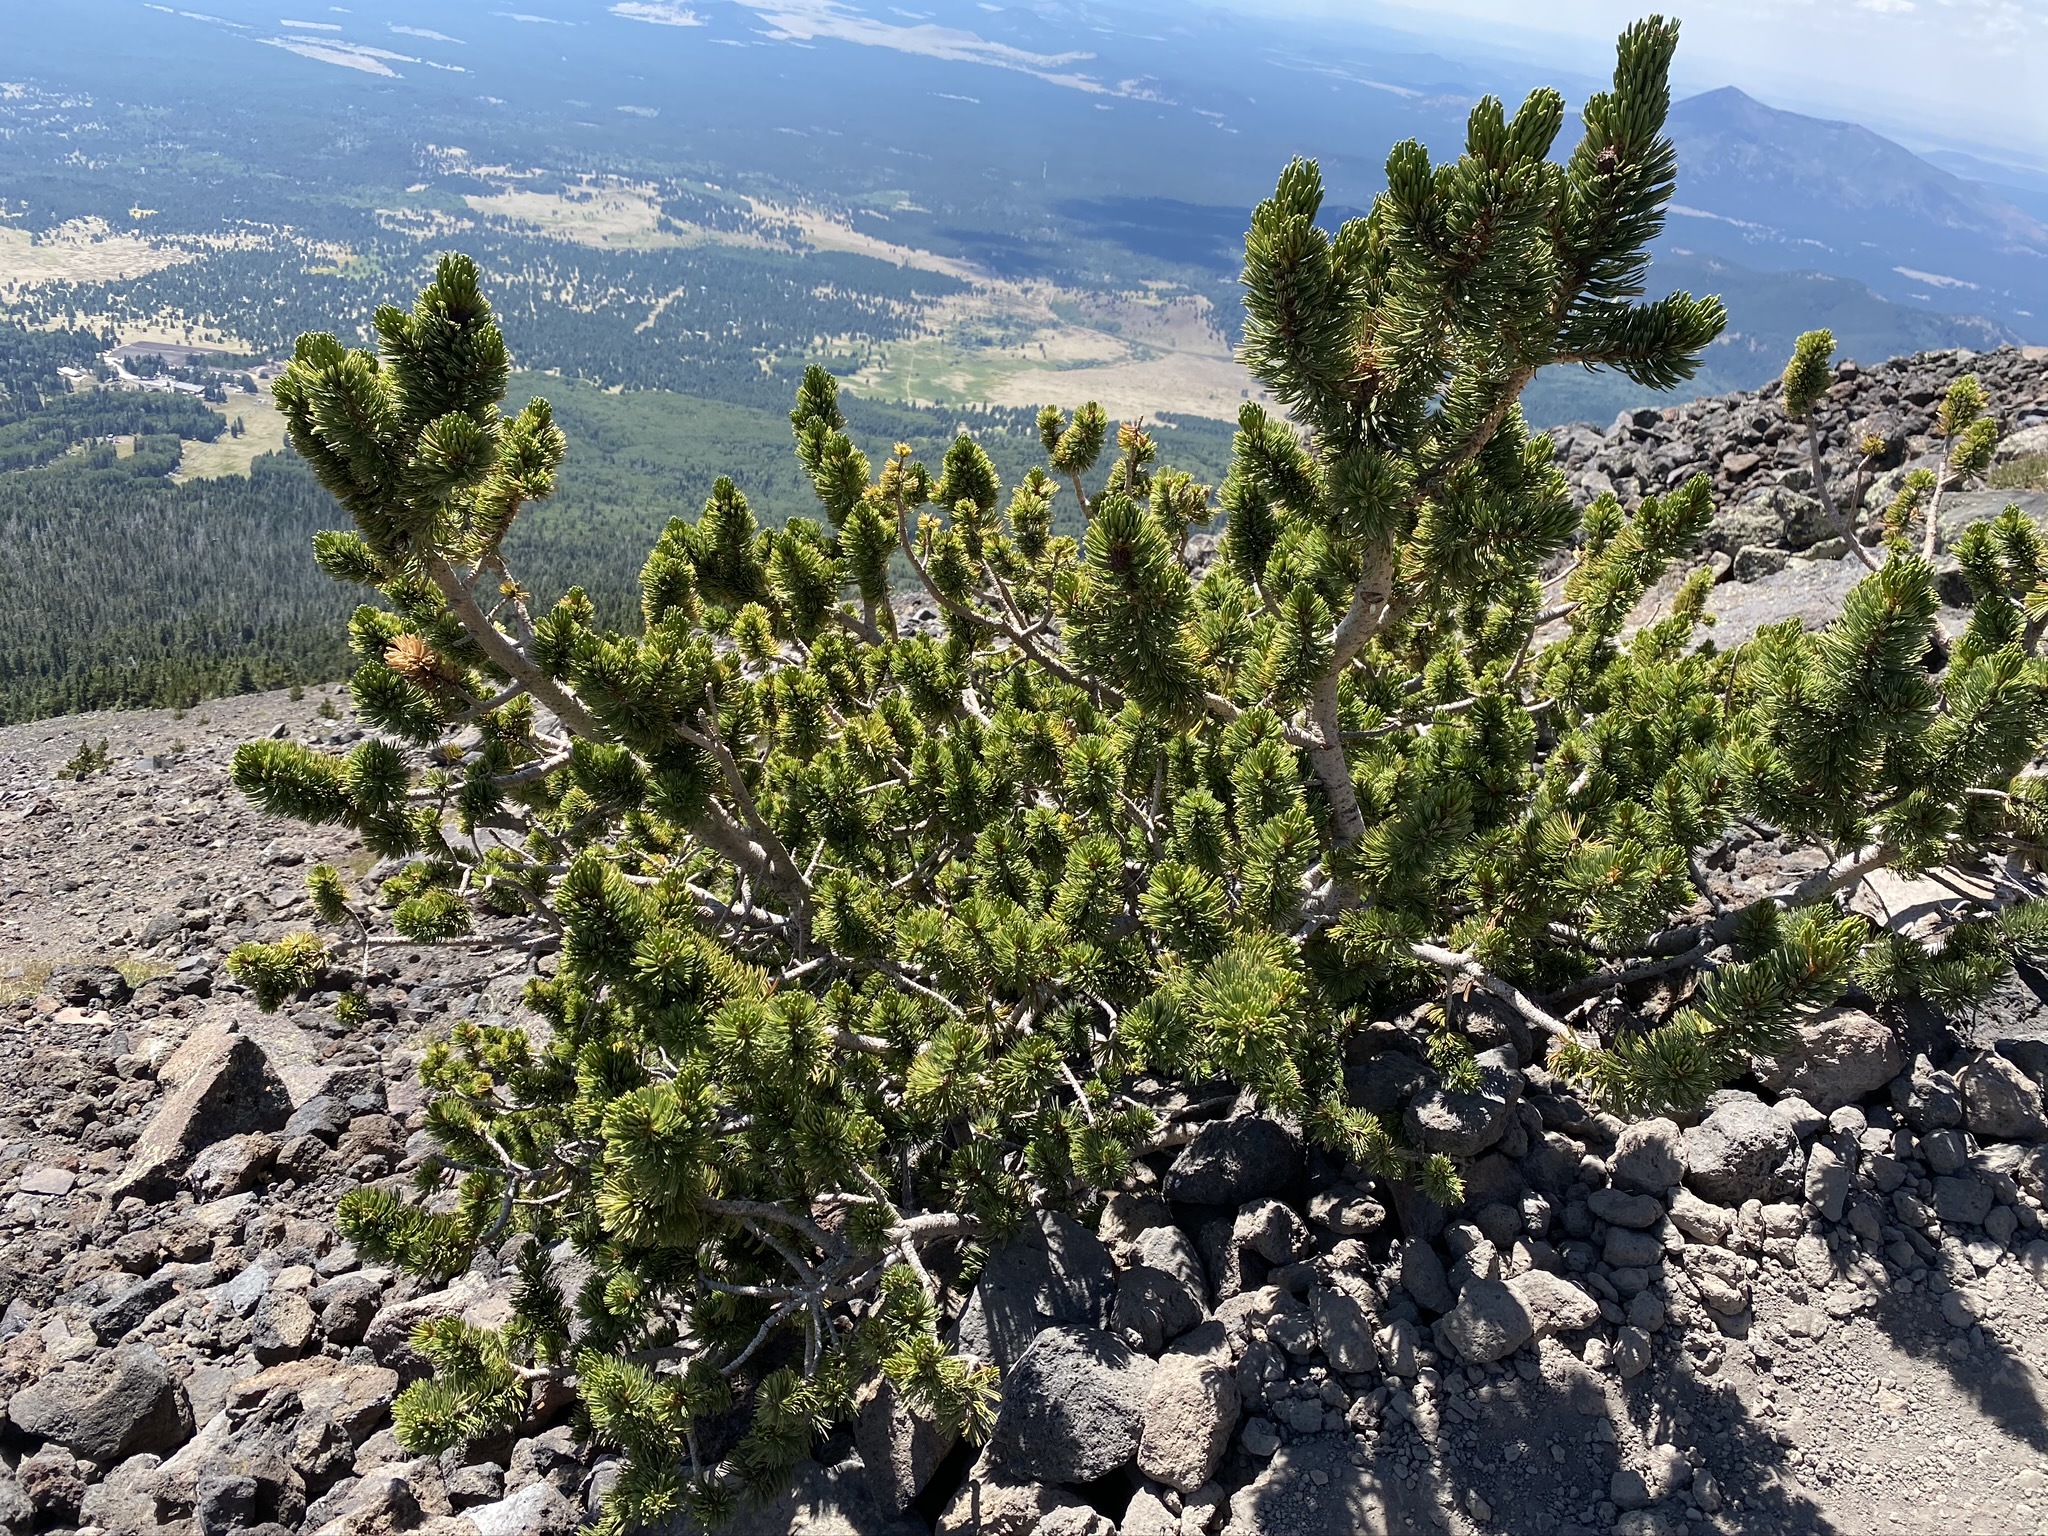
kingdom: Plantae
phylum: Tracheophyta
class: Pinopsida
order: Pinales
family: Pinaceae
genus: Pinus
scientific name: Pinus aristata
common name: Colorado bristlecone pine
